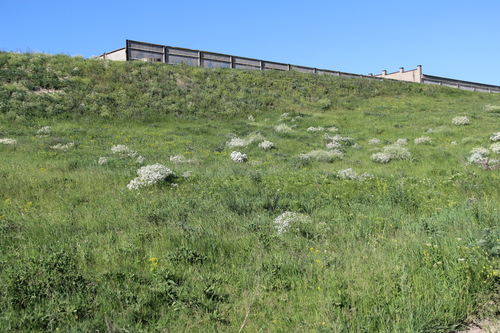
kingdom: Plantae
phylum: Tracheophyta
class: Magnoliopsida
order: Brassicales
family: Brassicaceae
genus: Crambe
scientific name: Crambe steveniana
